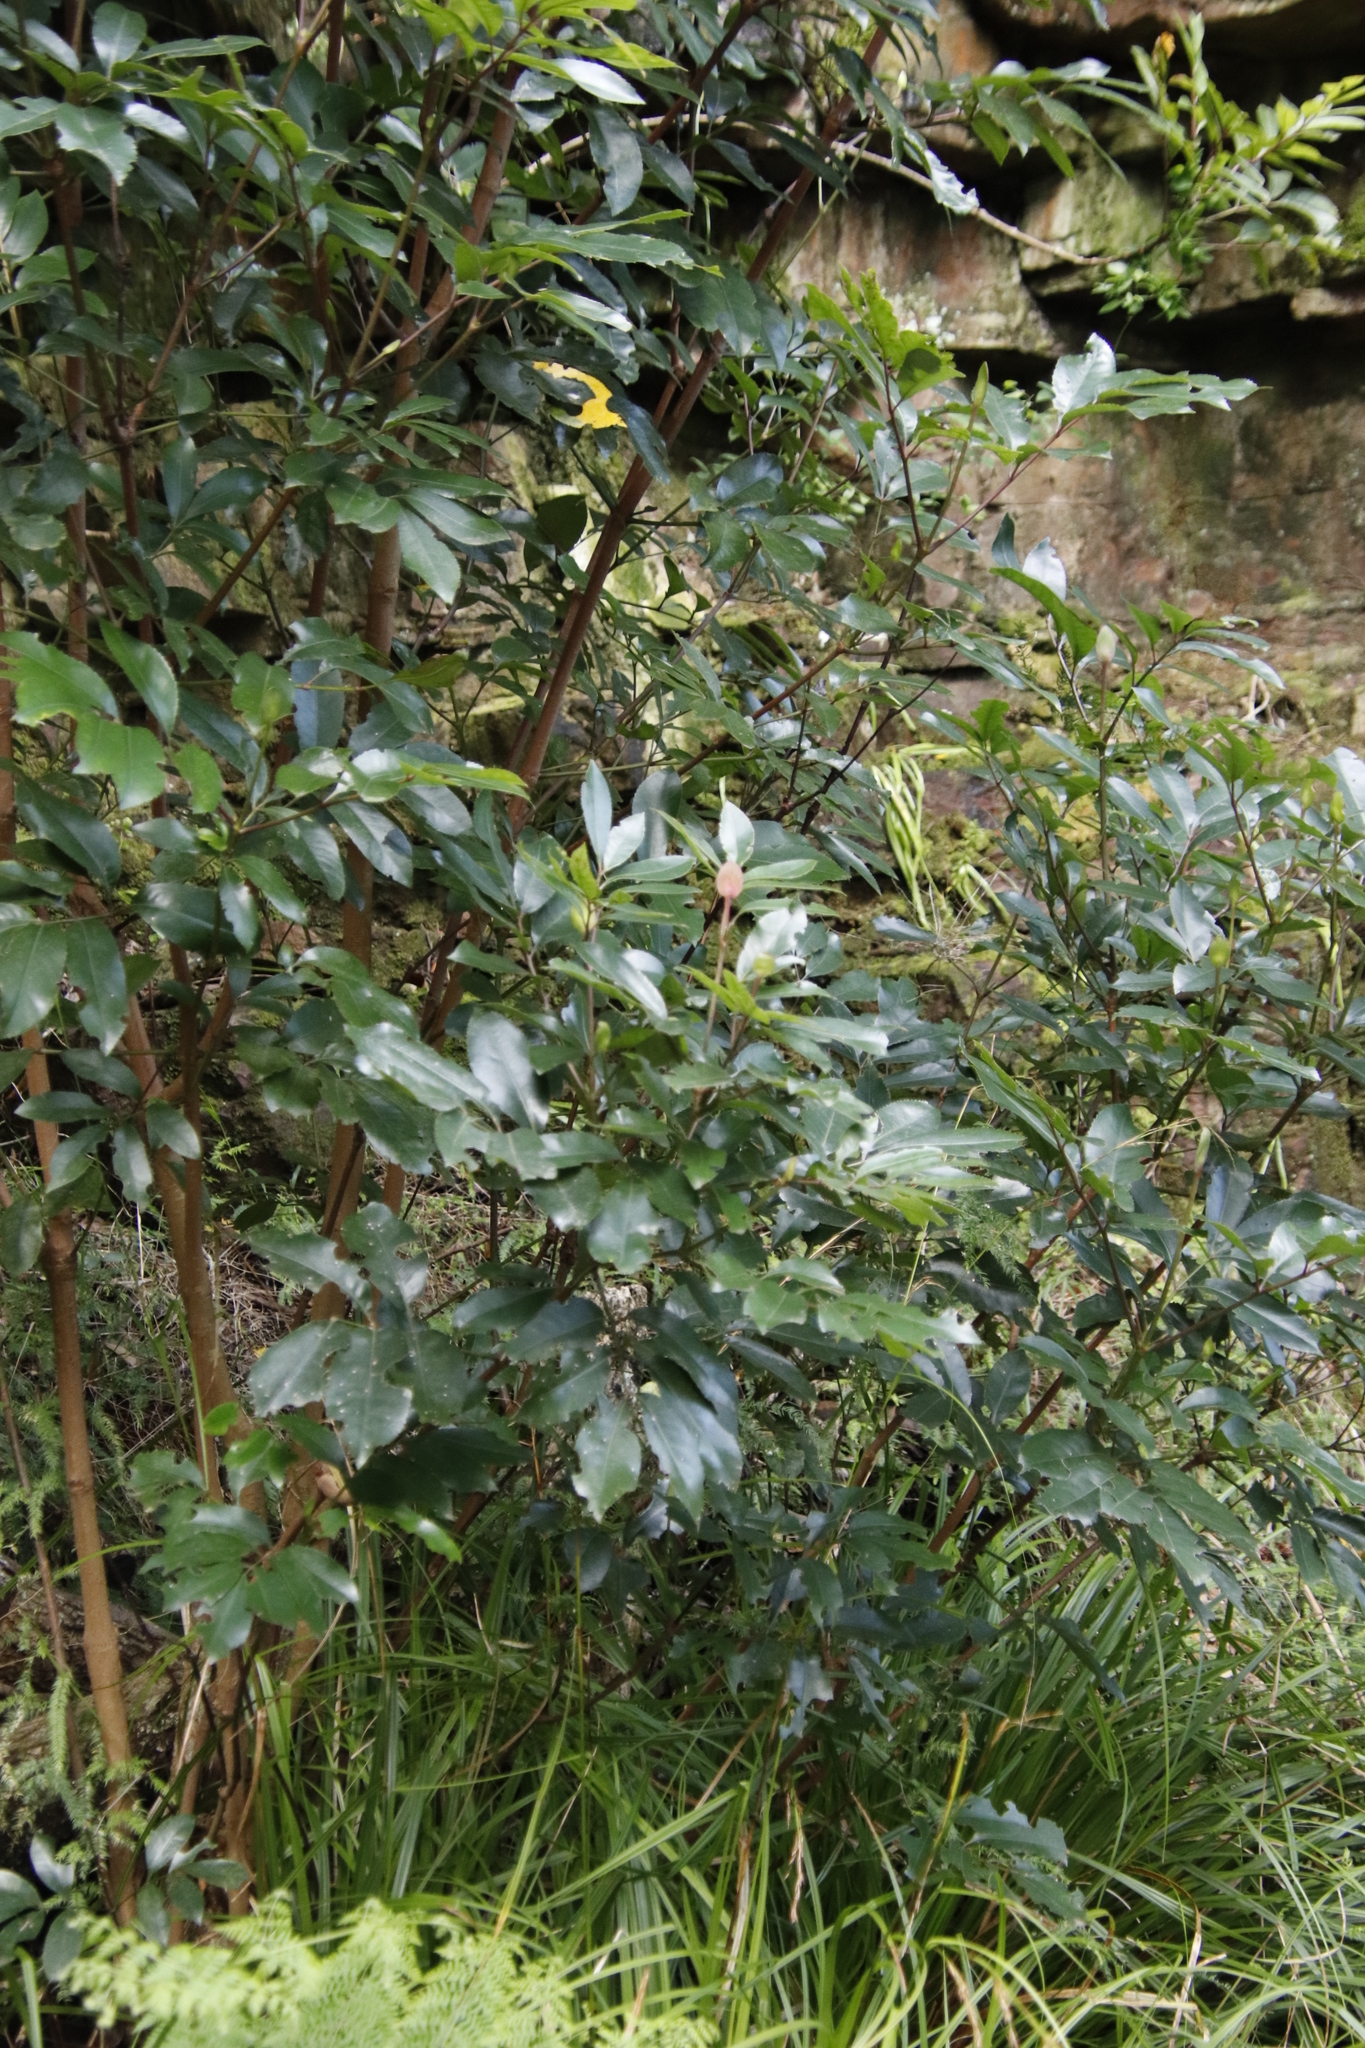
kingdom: Plantae
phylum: Tracheophyta
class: Magnoliopsida
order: Oxalidales
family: Cunoniaceae
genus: Cunonia
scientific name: Cunonia capensis
